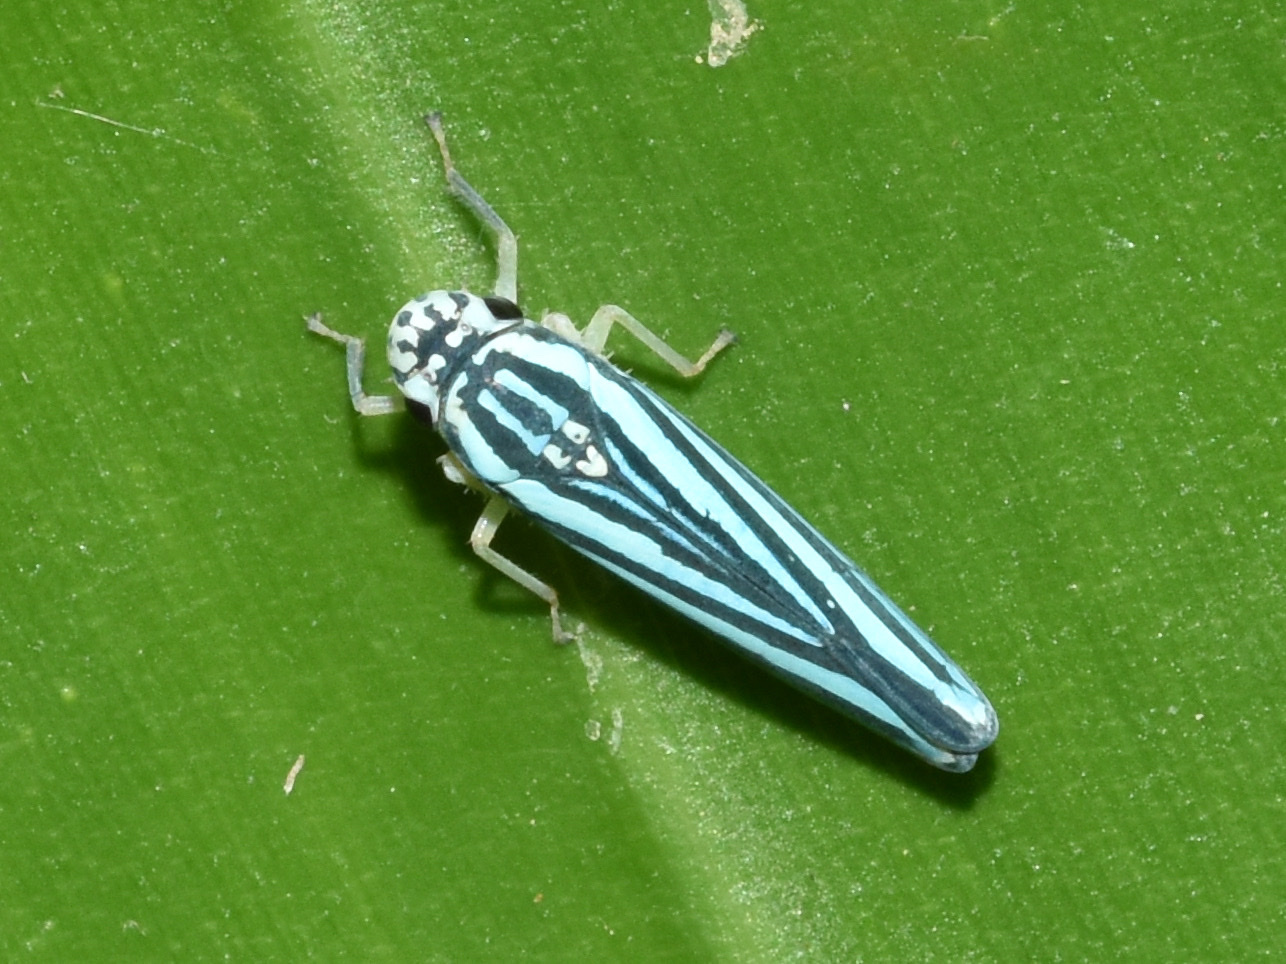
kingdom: Animalia
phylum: Arthropoda
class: Insecta
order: Hemiptera
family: Cicadellidae
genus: Tettigoniella
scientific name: Tettigoniella cosmopolita
